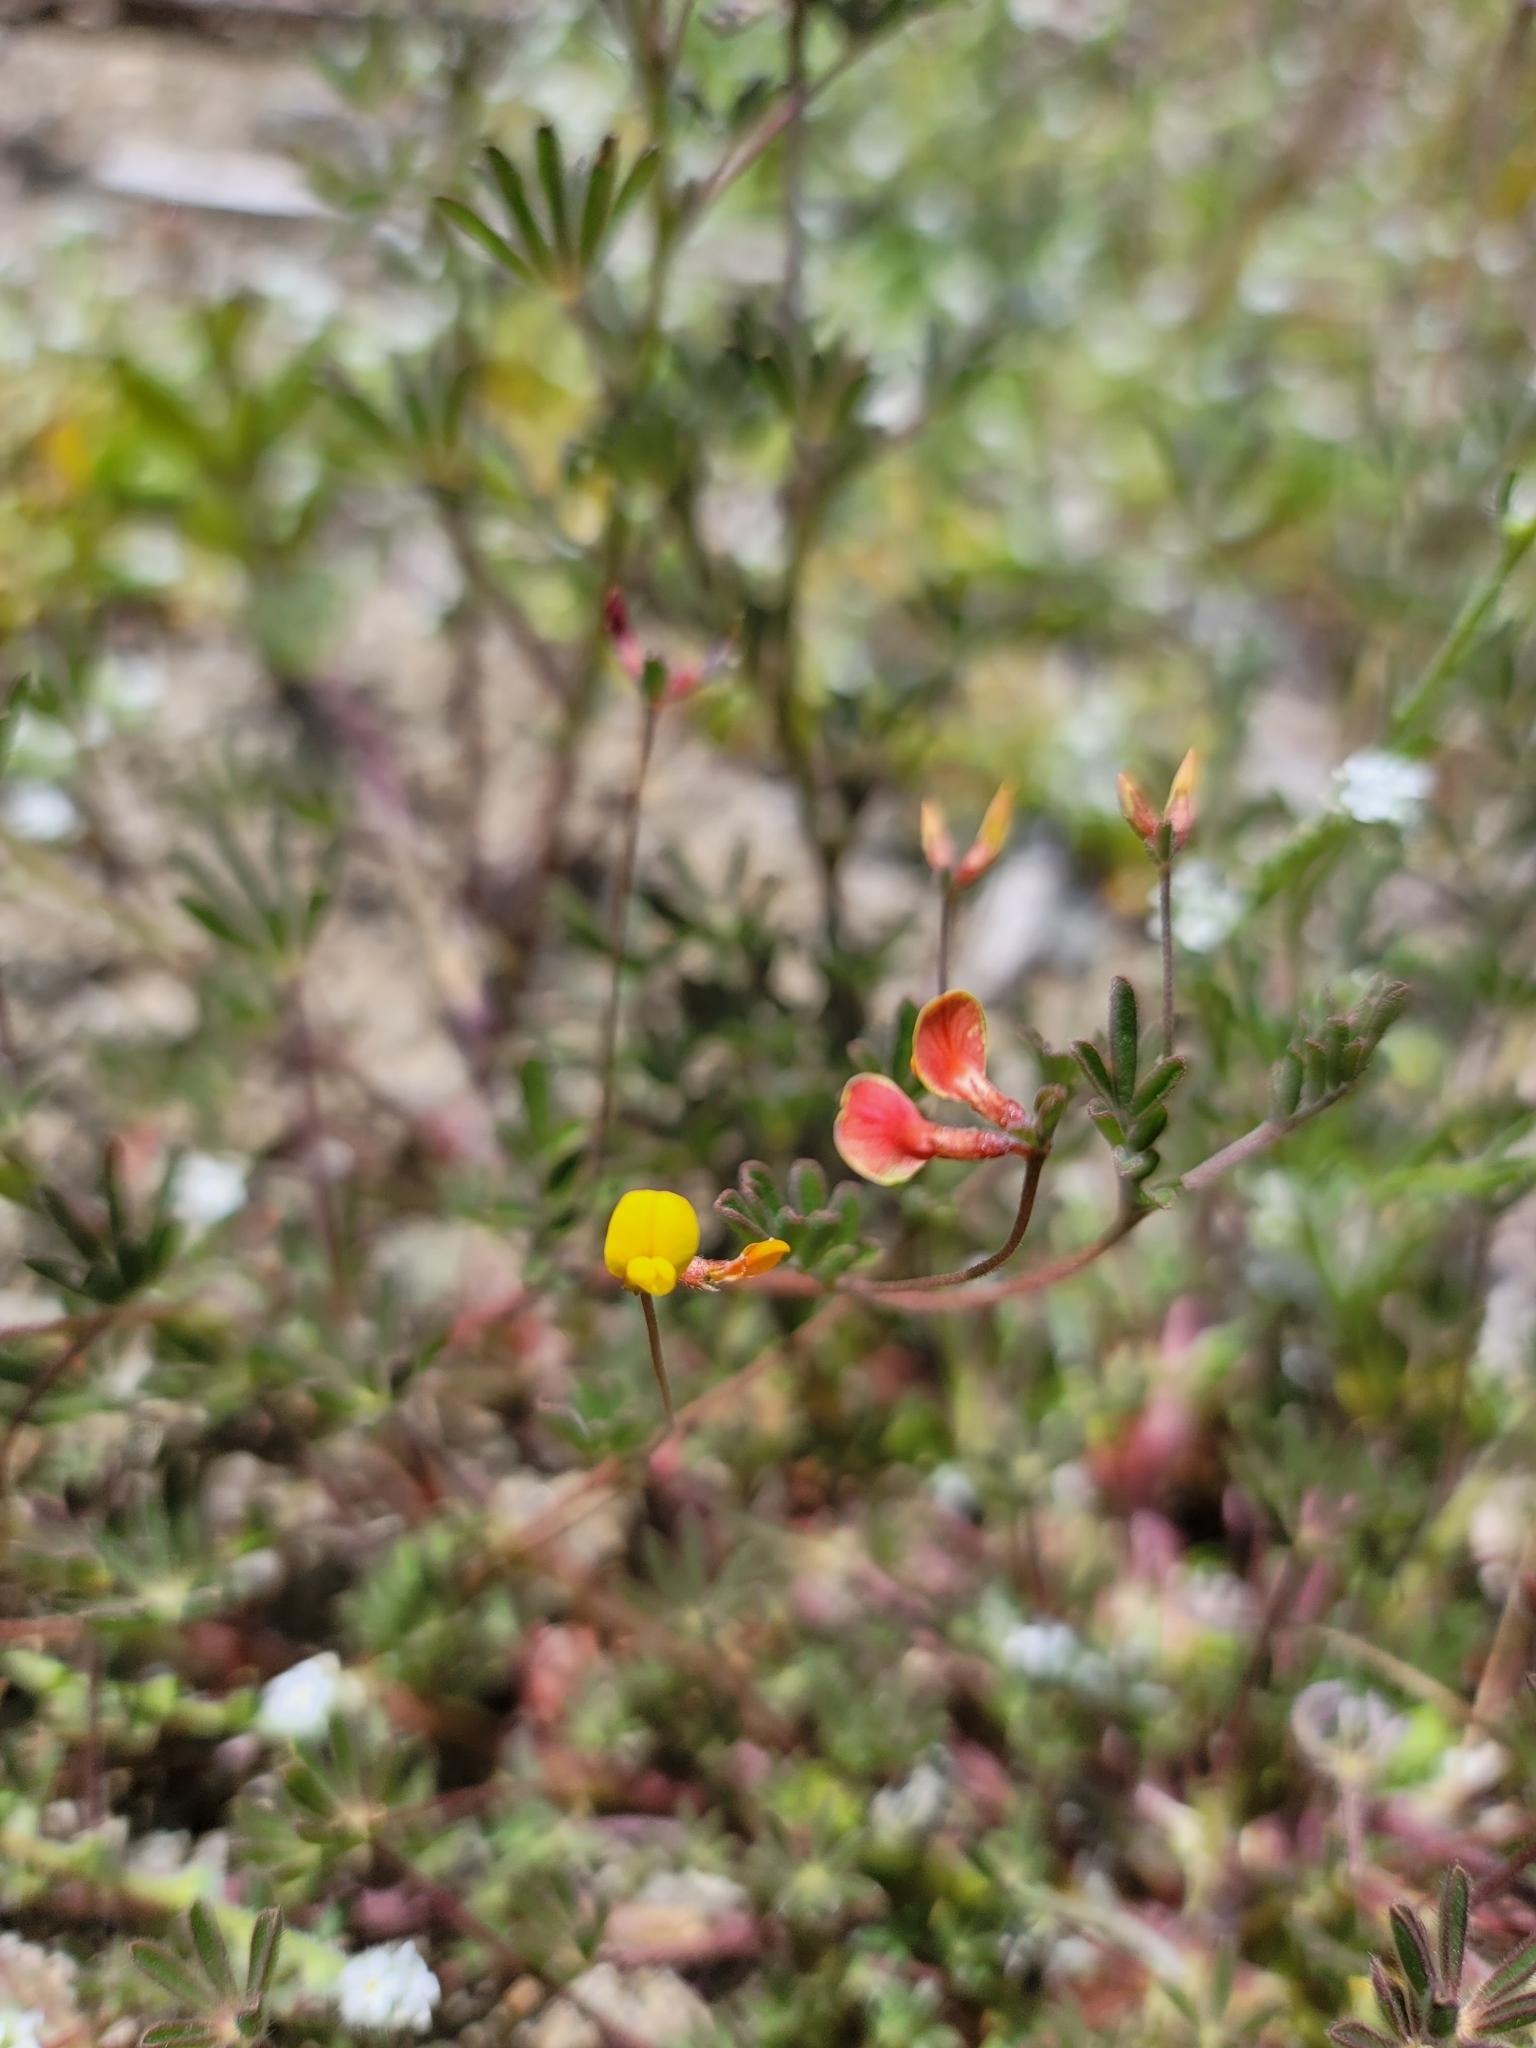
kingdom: Plantae
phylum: Tracheophyta
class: Magnoliopsida
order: Fabales
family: Fabaceae
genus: Acmispon
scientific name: Acmispon strigosus
